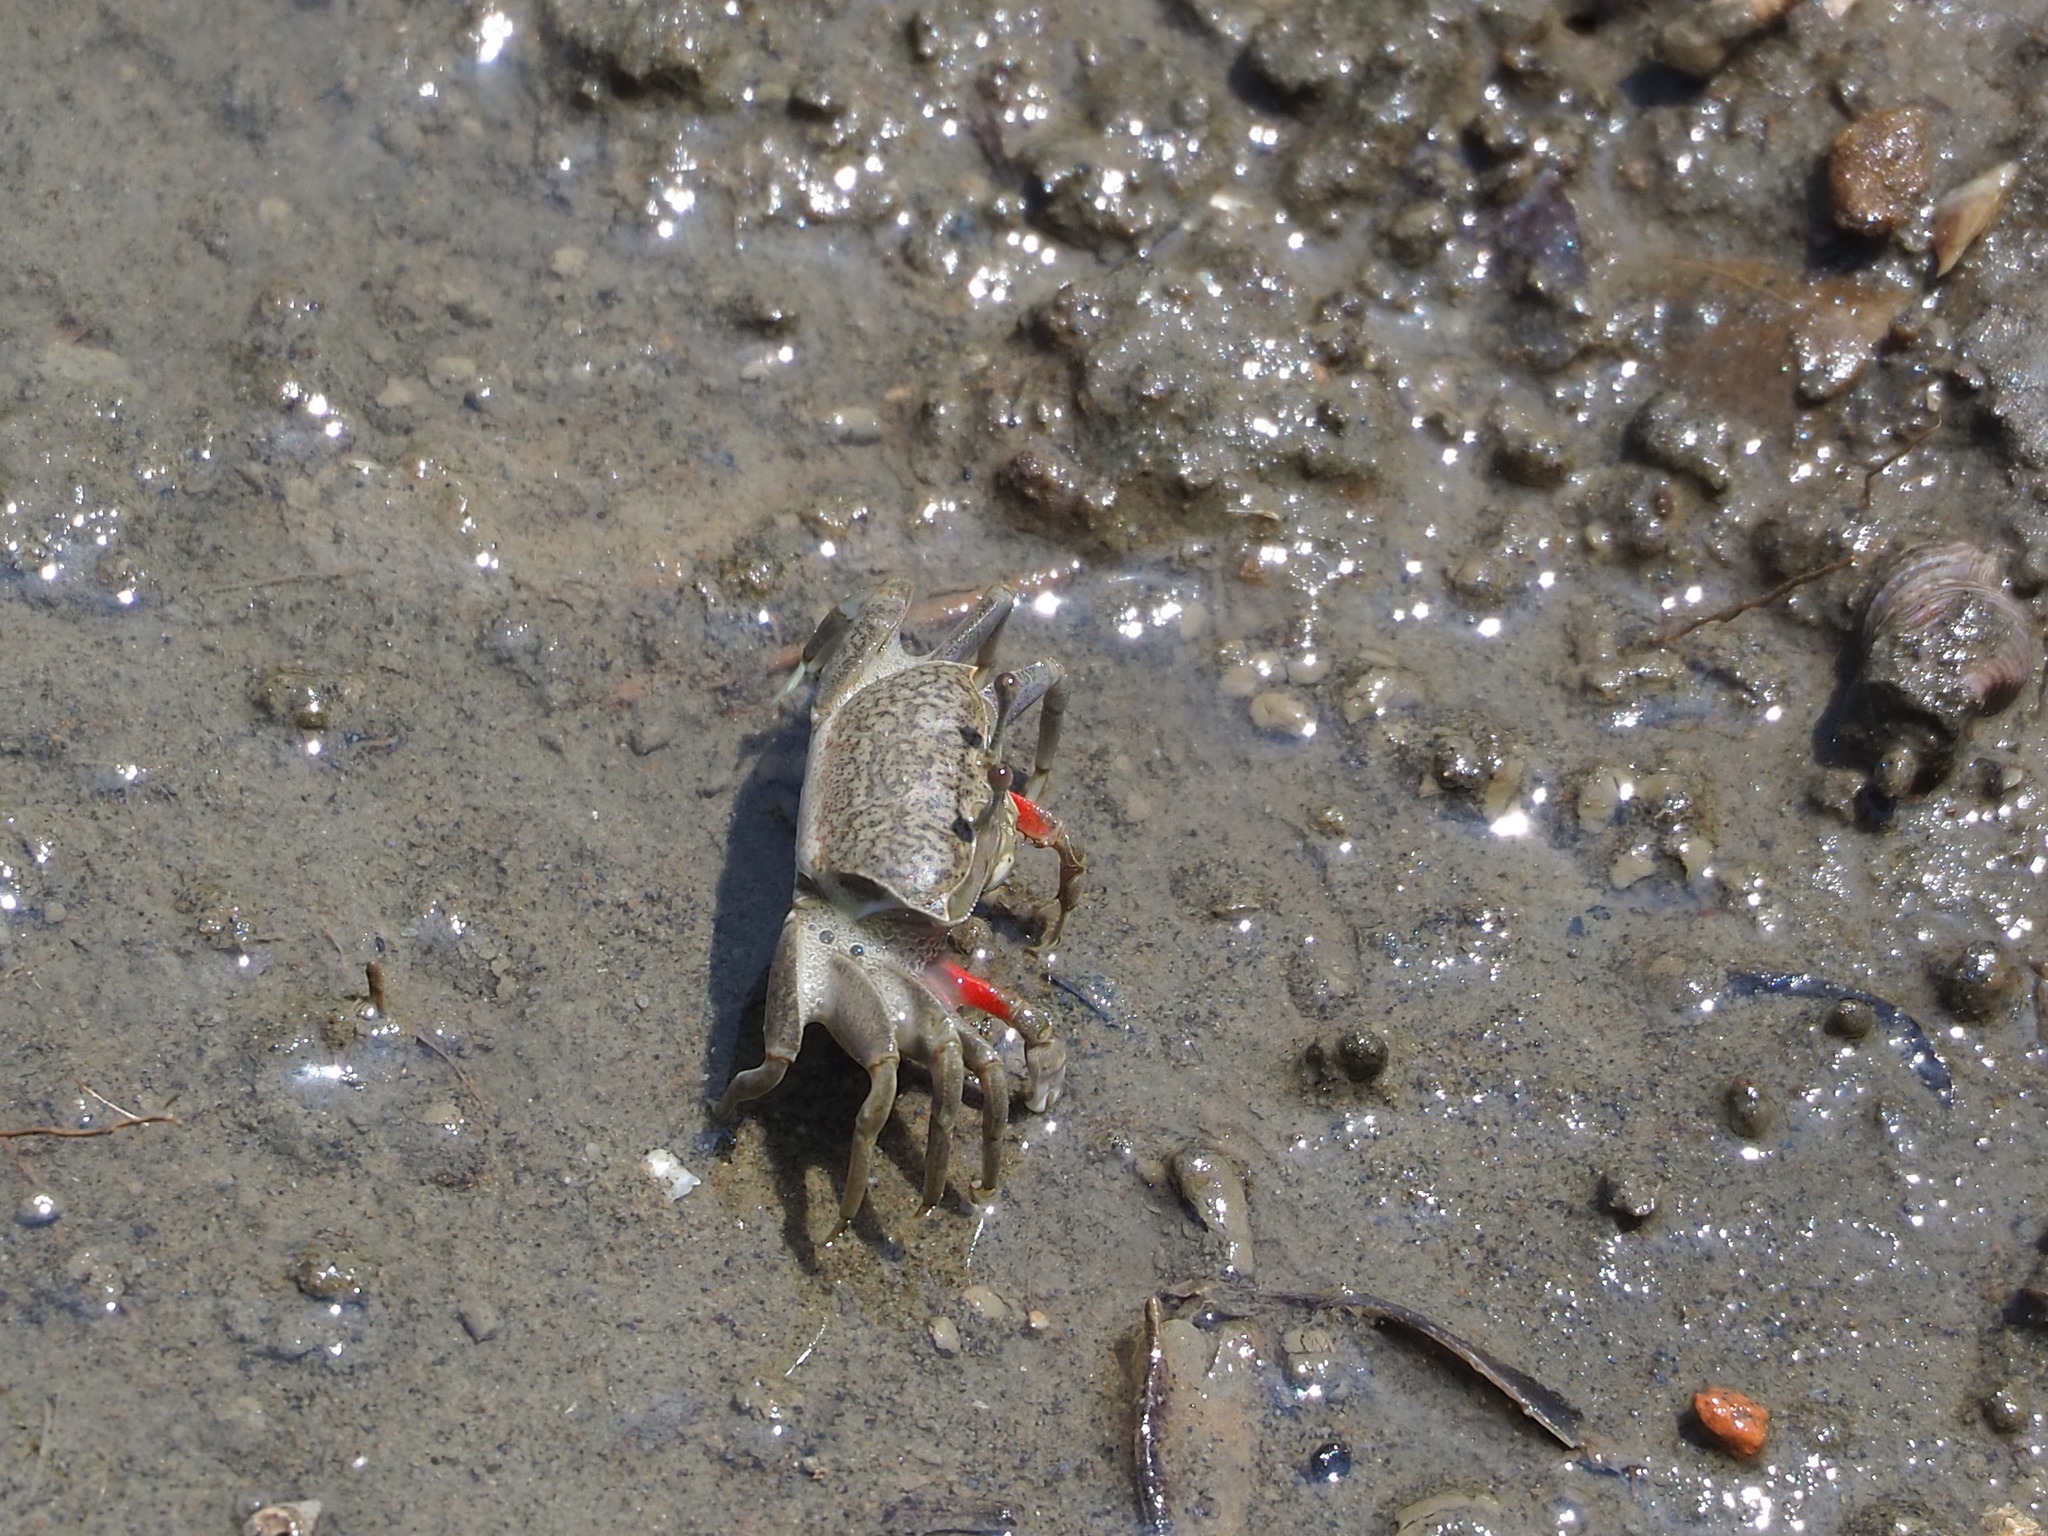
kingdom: Animalia
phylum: Arthropoda
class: Malacostraca
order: Decapoda
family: Ocypodidae
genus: Tubuca
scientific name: Tubuca arcuata
